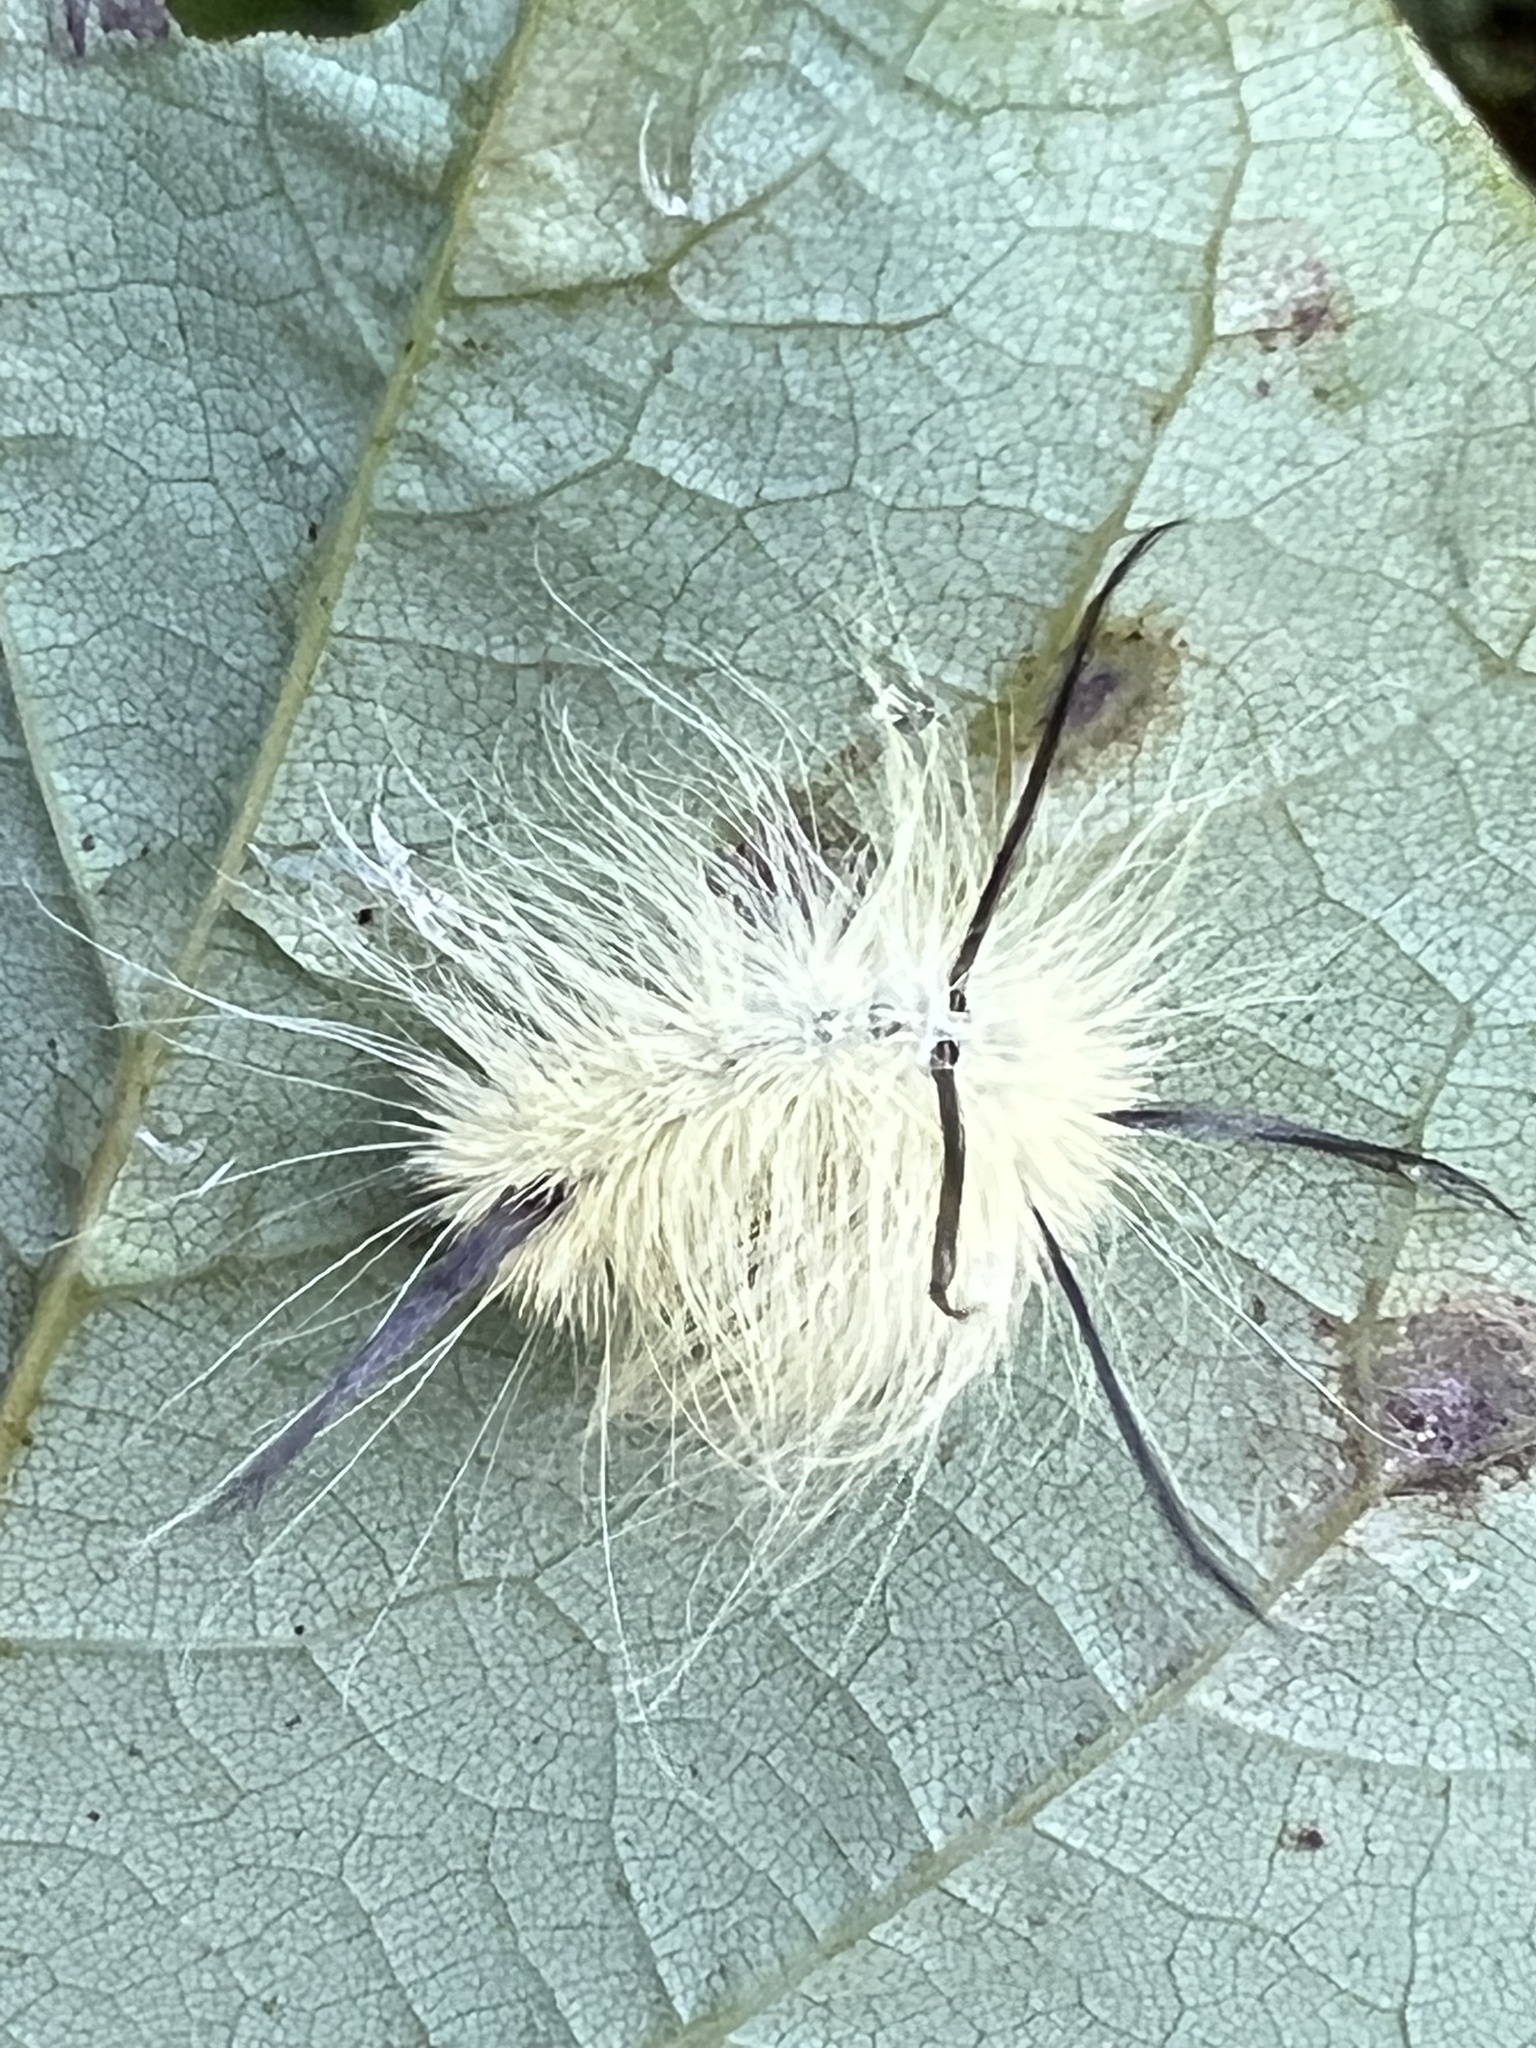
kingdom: Animalia
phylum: Arthropoda
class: Insecta
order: Lepidoptera
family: Noctuidae
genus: Acronicta
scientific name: Acronicta americana
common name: American dagger
